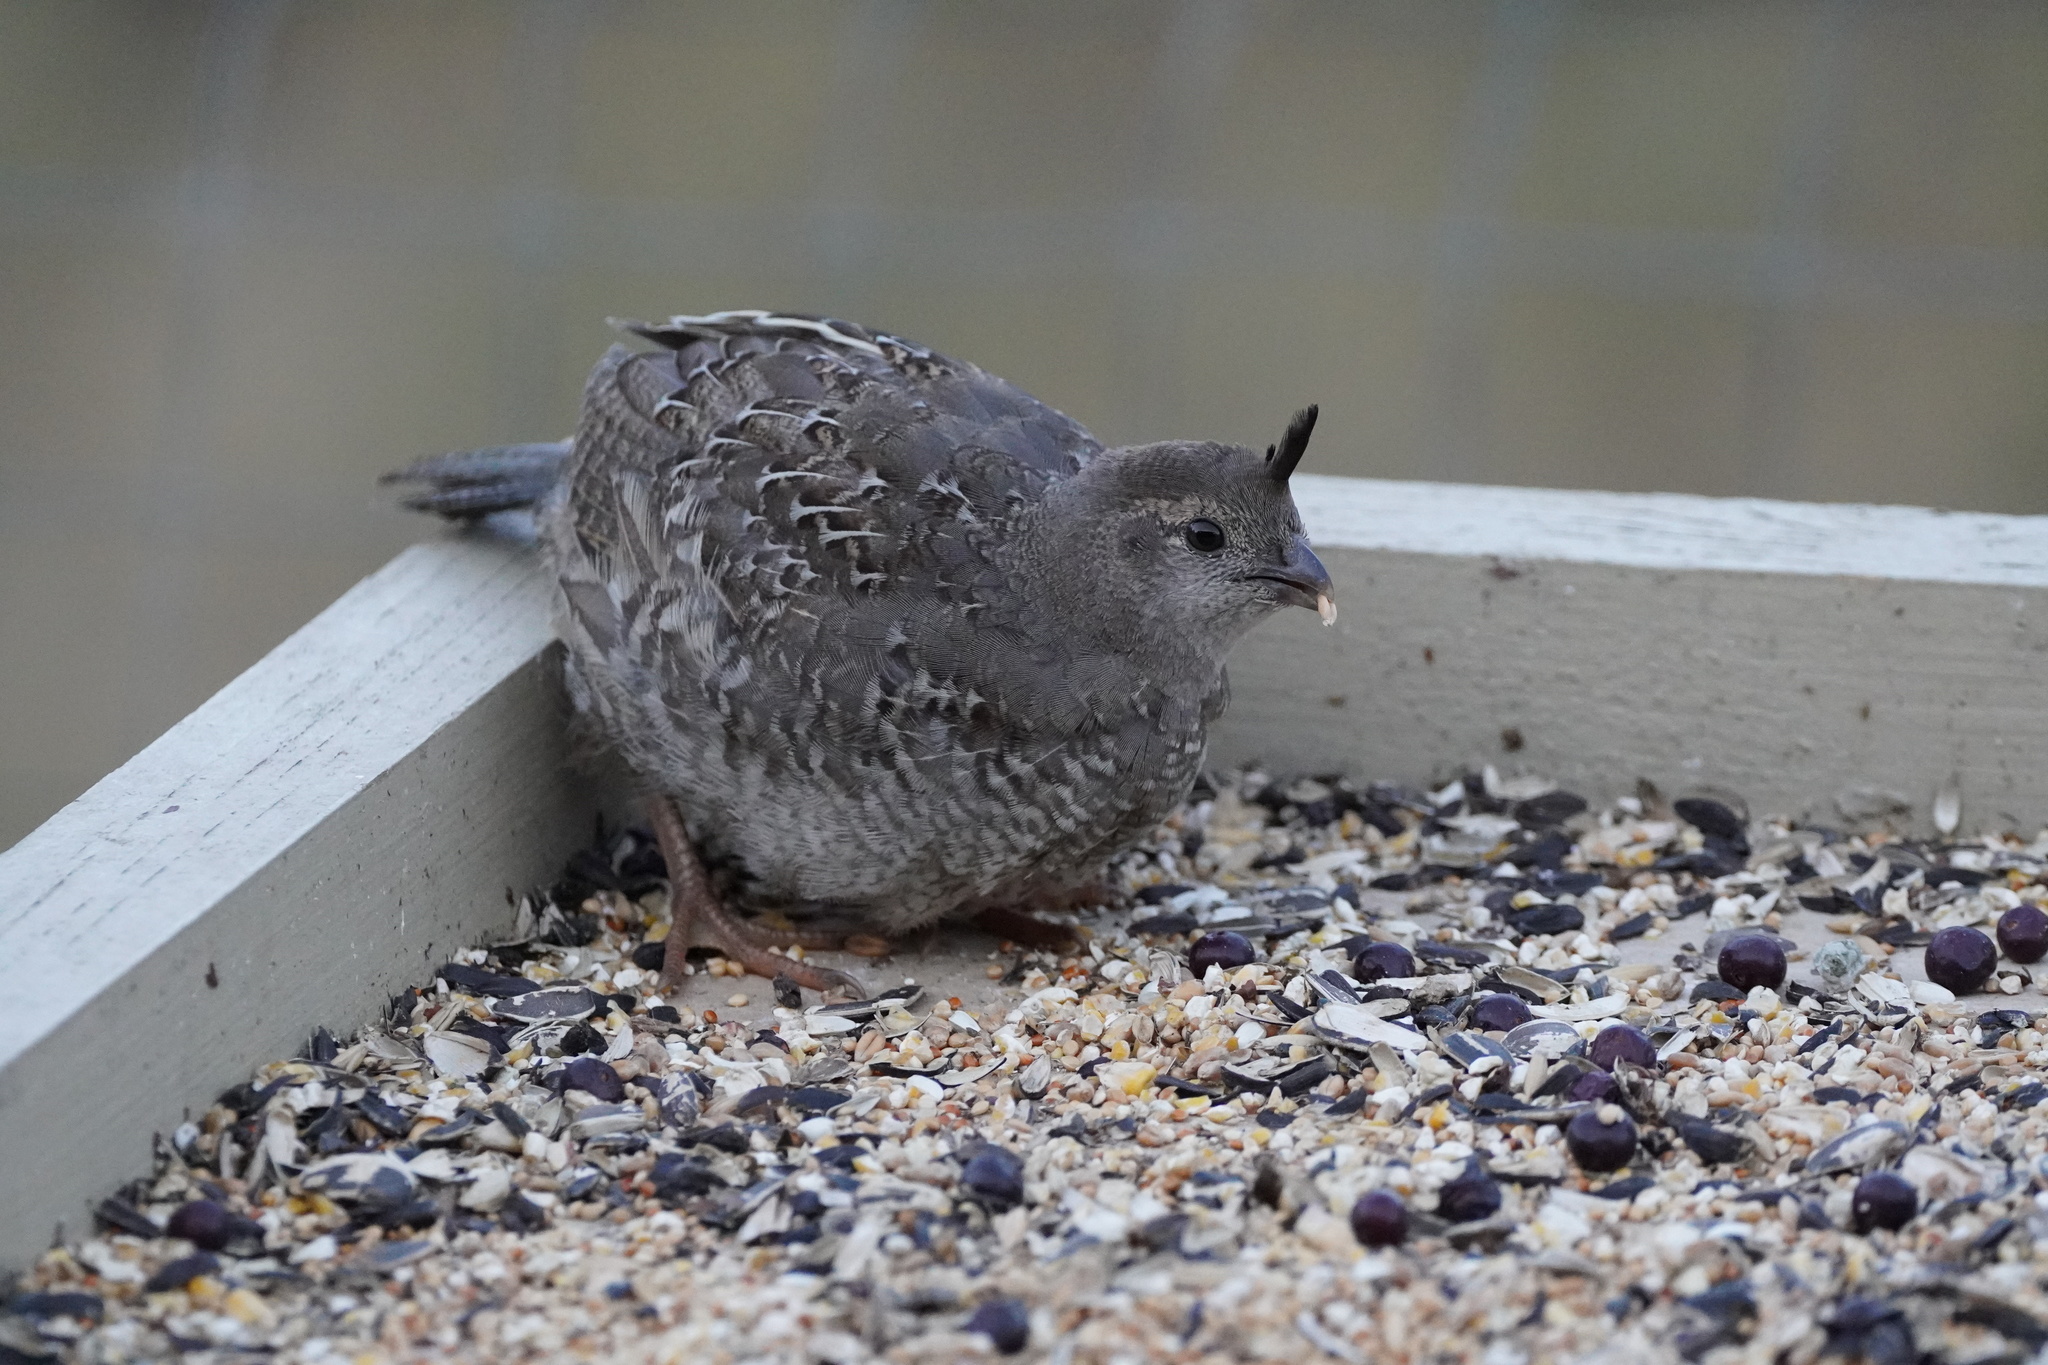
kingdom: Animalia
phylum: Chordata
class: Aves
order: Galliformes
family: Odontophoridae
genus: Callipepla
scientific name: Callipepla californica
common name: California quail
